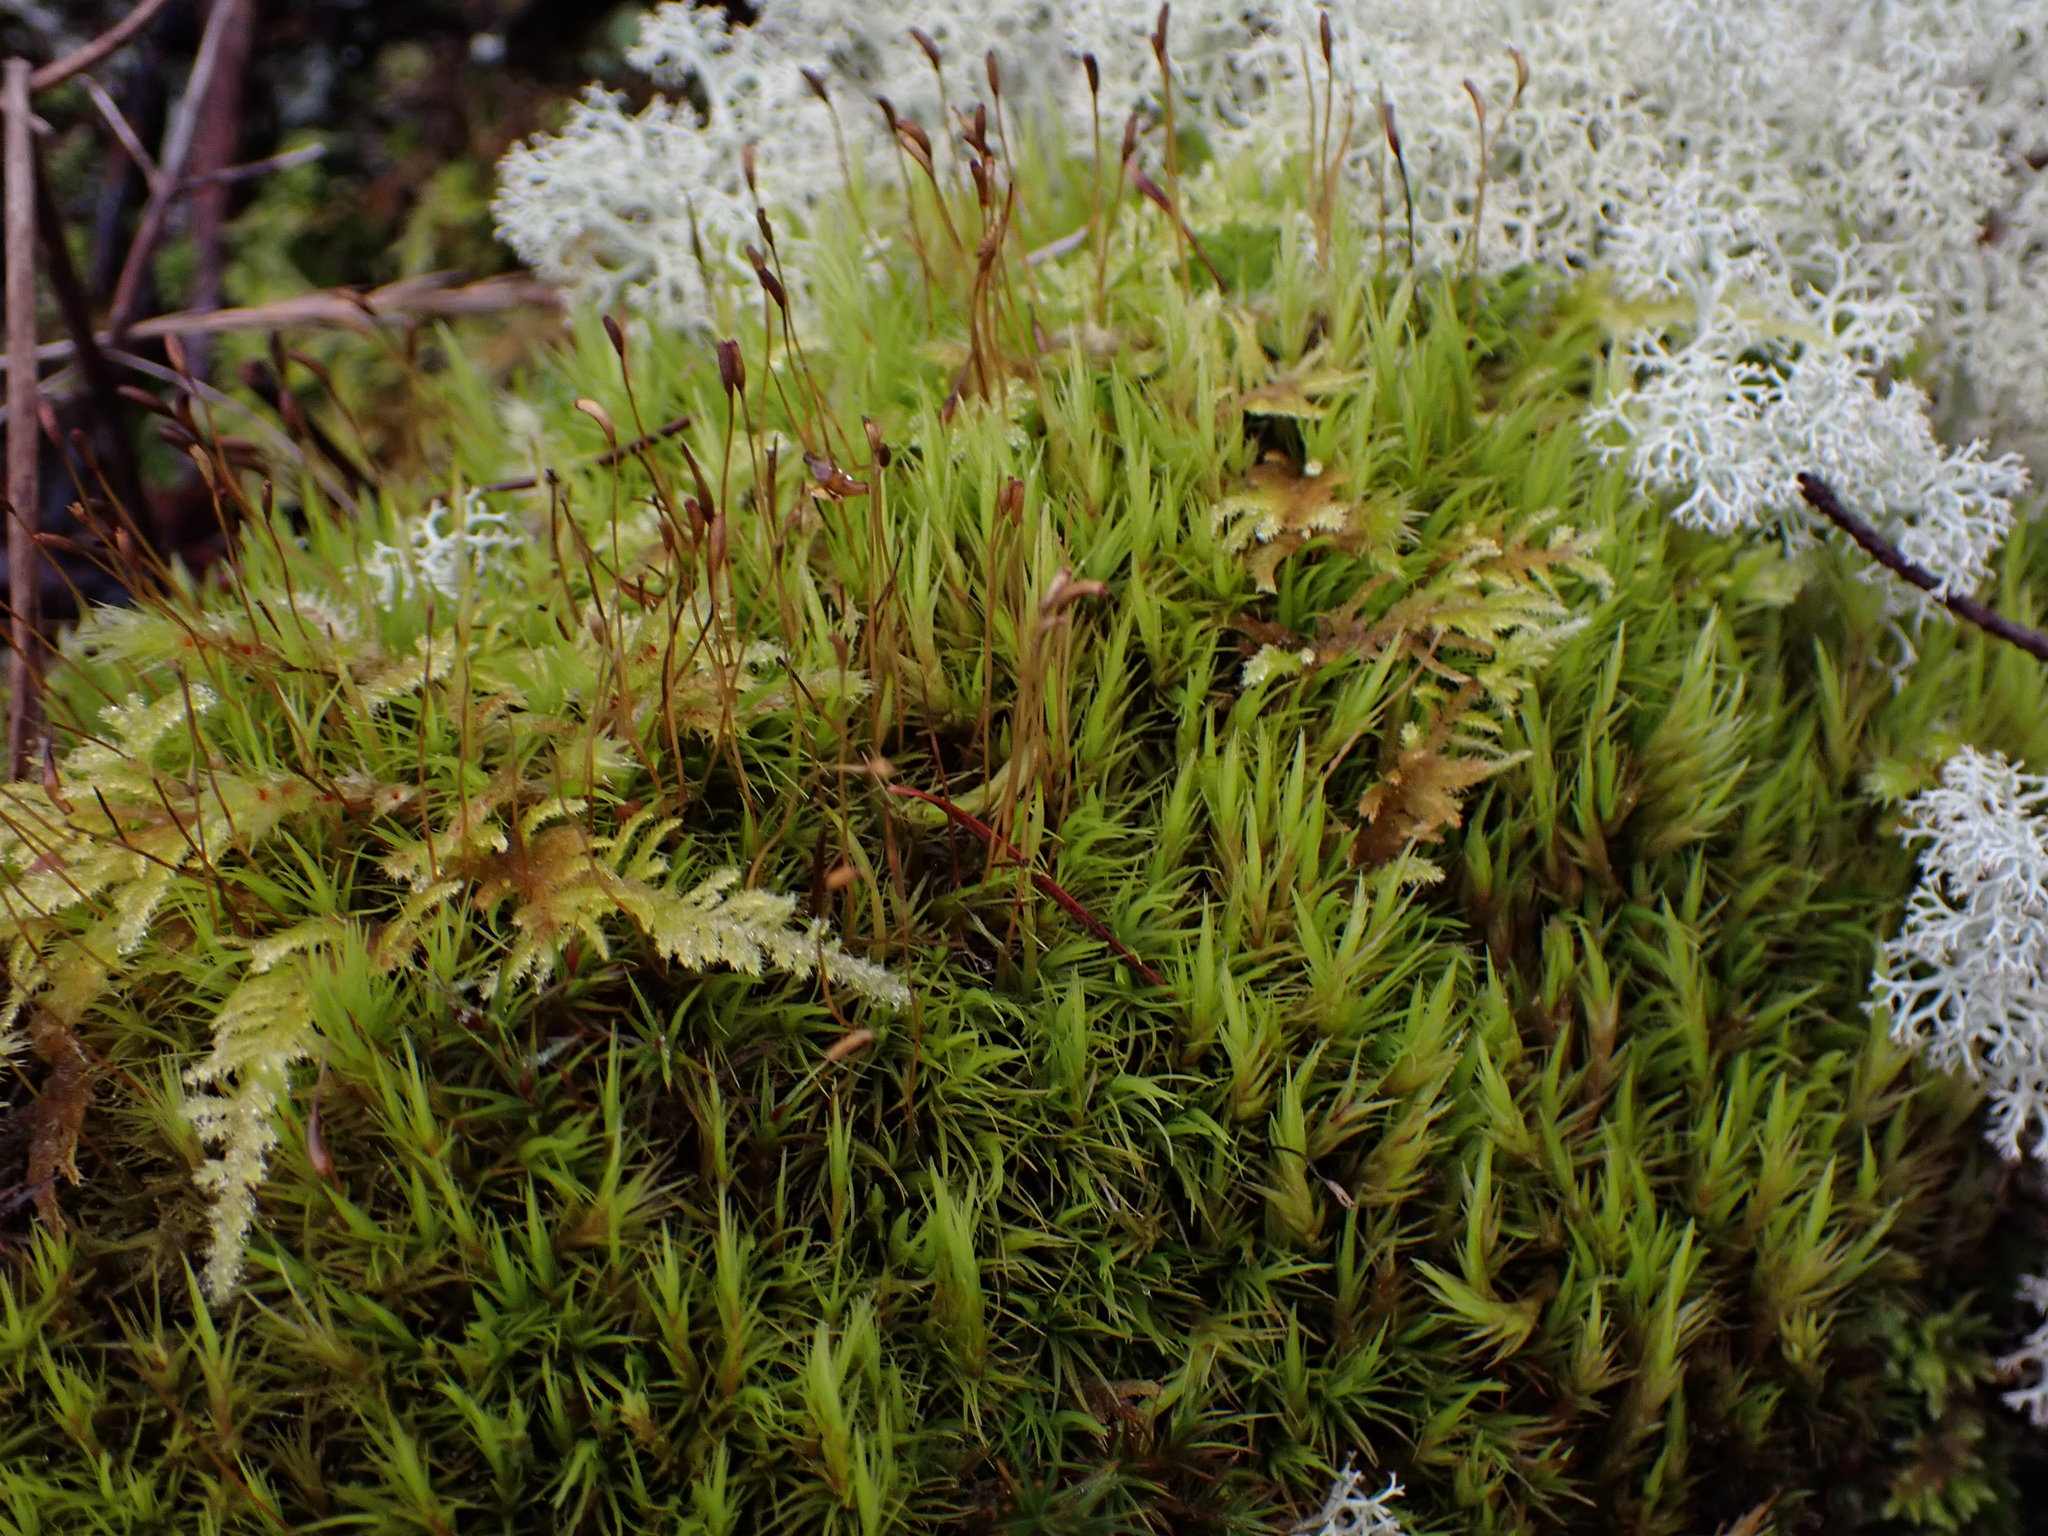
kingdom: Plantae
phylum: Bryophyta
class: Bryopsida
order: Dicranales
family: Dicranaceae
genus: Dicranum
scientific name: Dicranum scoparium
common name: Broom fork-moss
